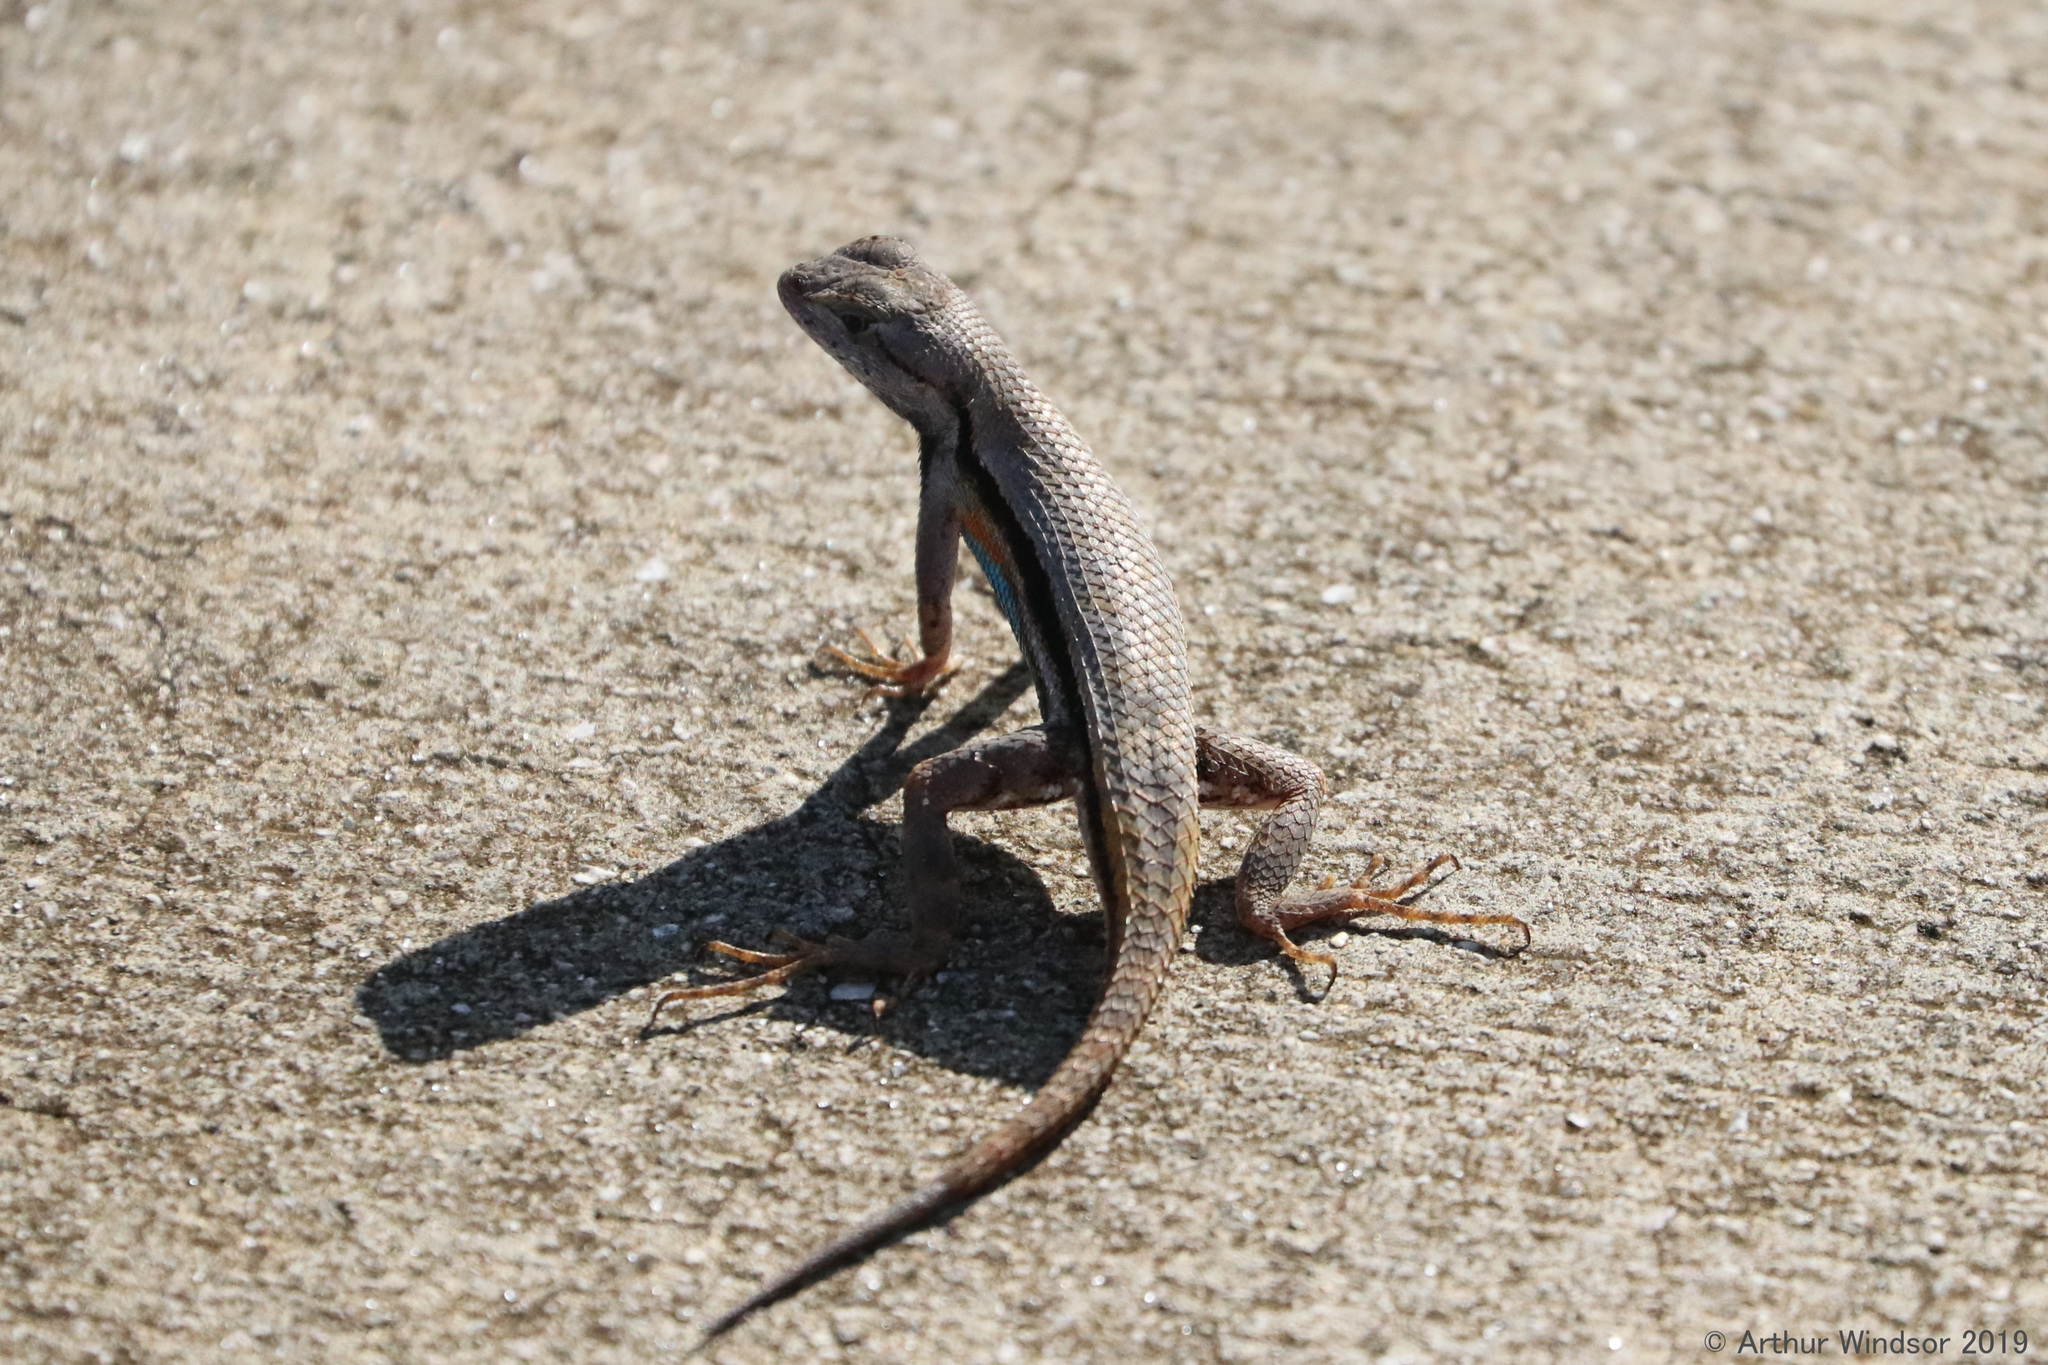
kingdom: Animalia
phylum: Chordata
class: Squamata
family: Phrynosomatidae
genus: Sceloporus
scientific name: Sceloporus woodi
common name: Florida scrub lizard
